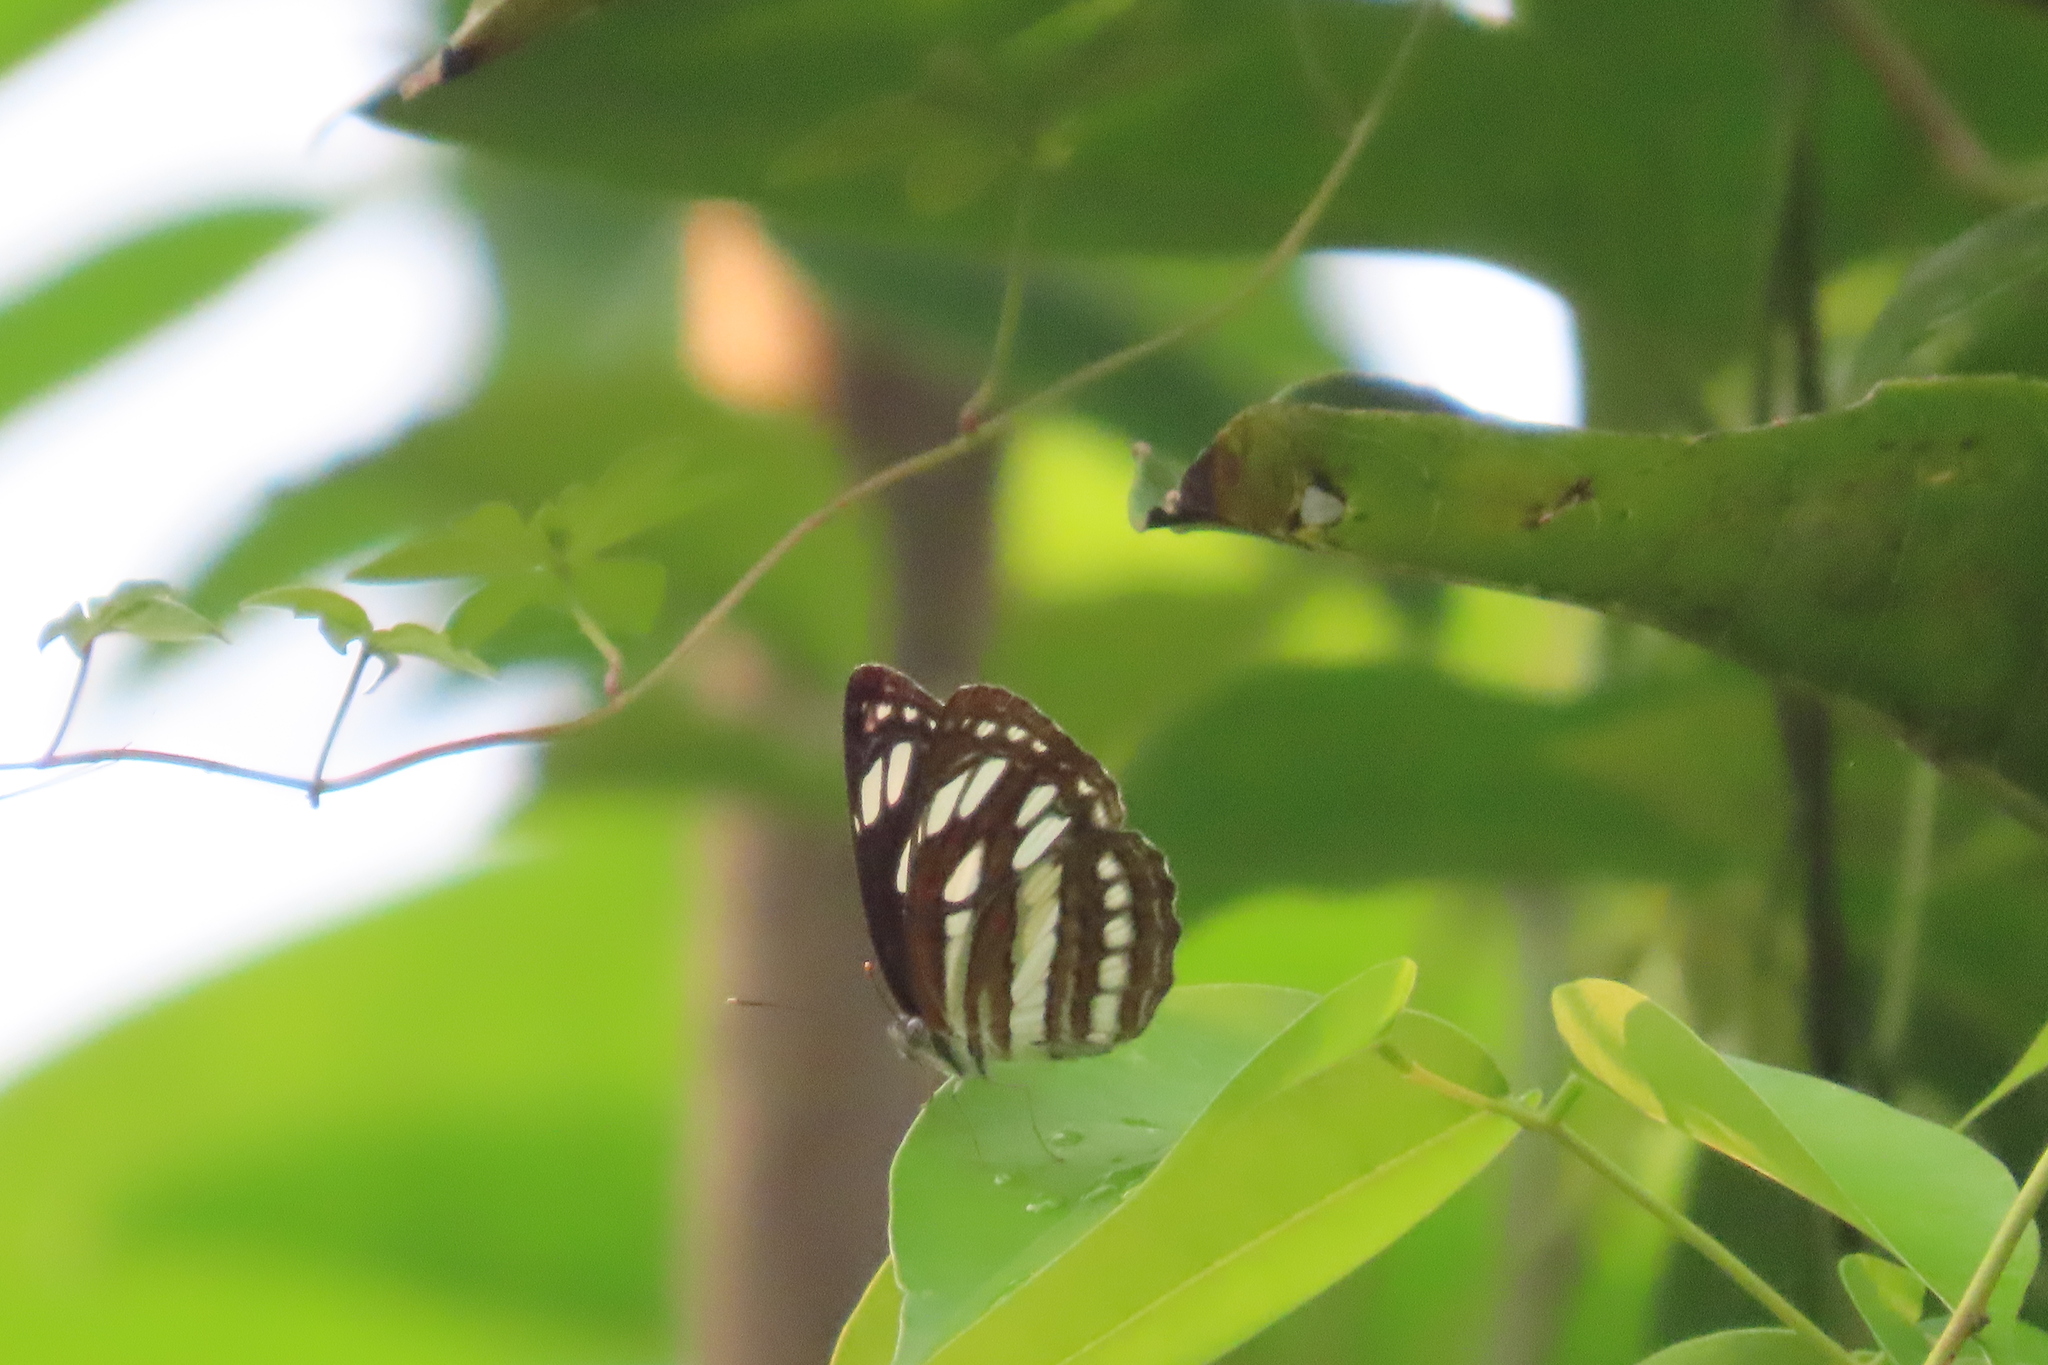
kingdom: Animalia
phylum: Arthropoda
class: Insecta
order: Lepidoptera
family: Nymphalidae
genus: Neptis
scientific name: Neptis hylas
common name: Common sailer
